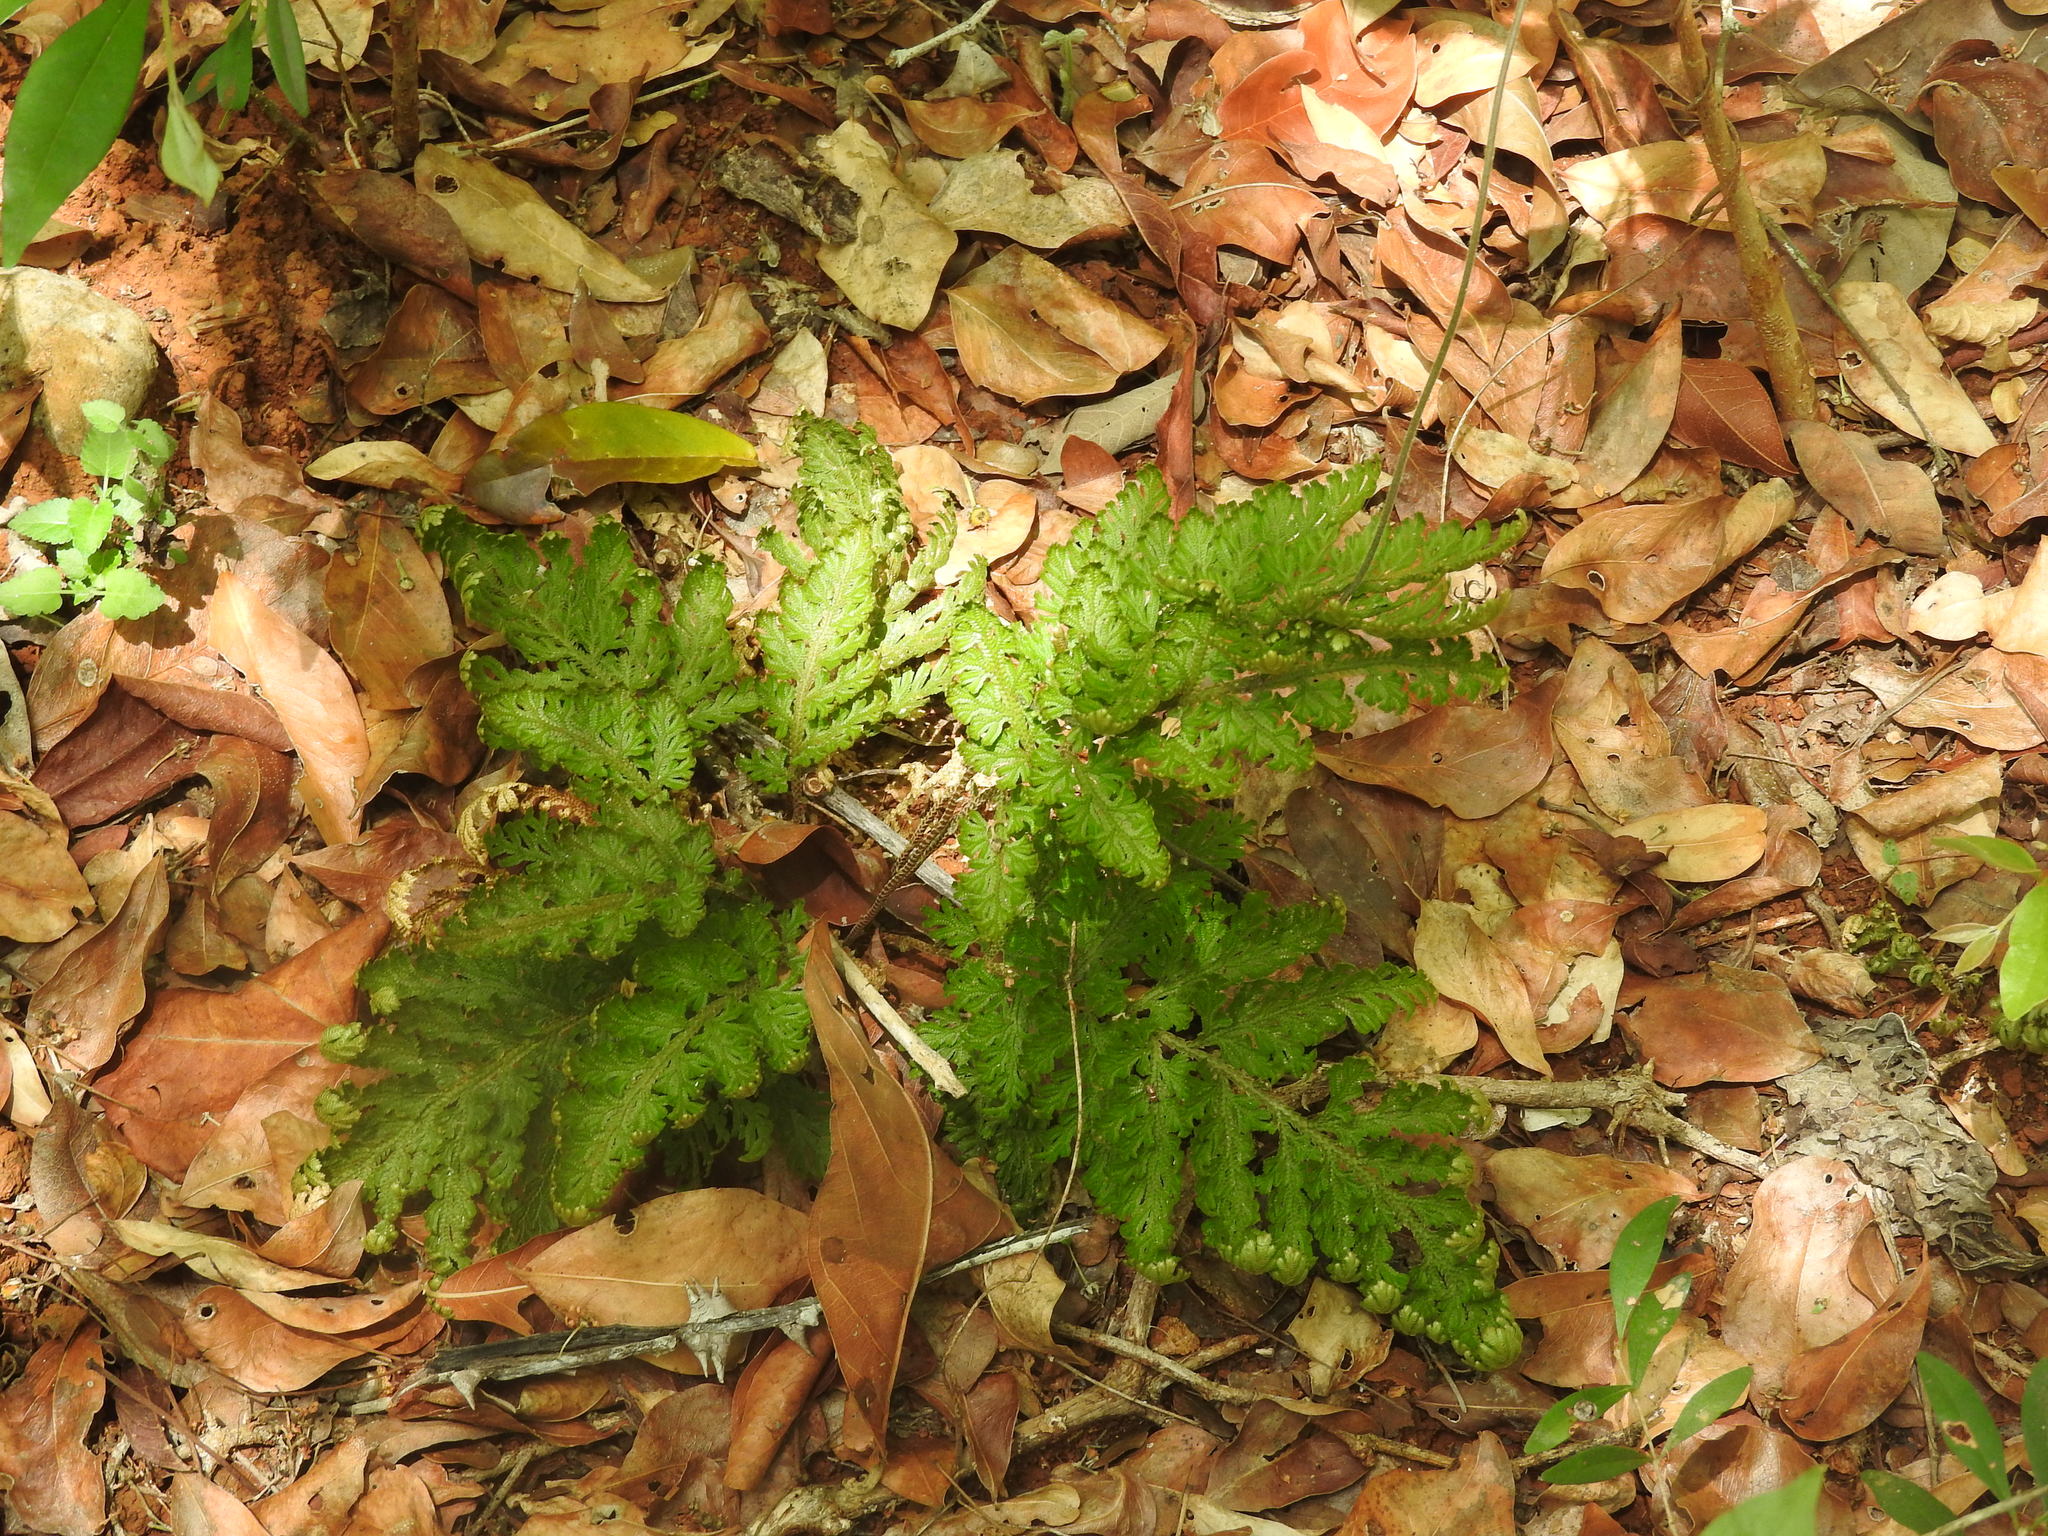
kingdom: Plantae
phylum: Tracheophyta
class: Lycopodiopsida
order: Selaginellales
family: Selaginellaceae
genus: Selaginella
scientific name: Selaginella convoluta
